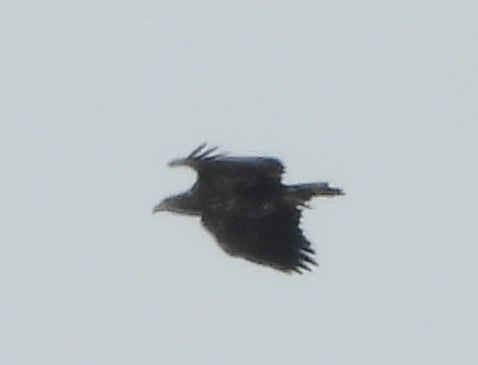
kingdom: Animalia
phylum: Chordata
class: Aves
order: Accipitriformes
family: Accipitridae
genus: Haliaeetus
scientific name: Haliaeetus albicilla
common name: White-tailed eagle
